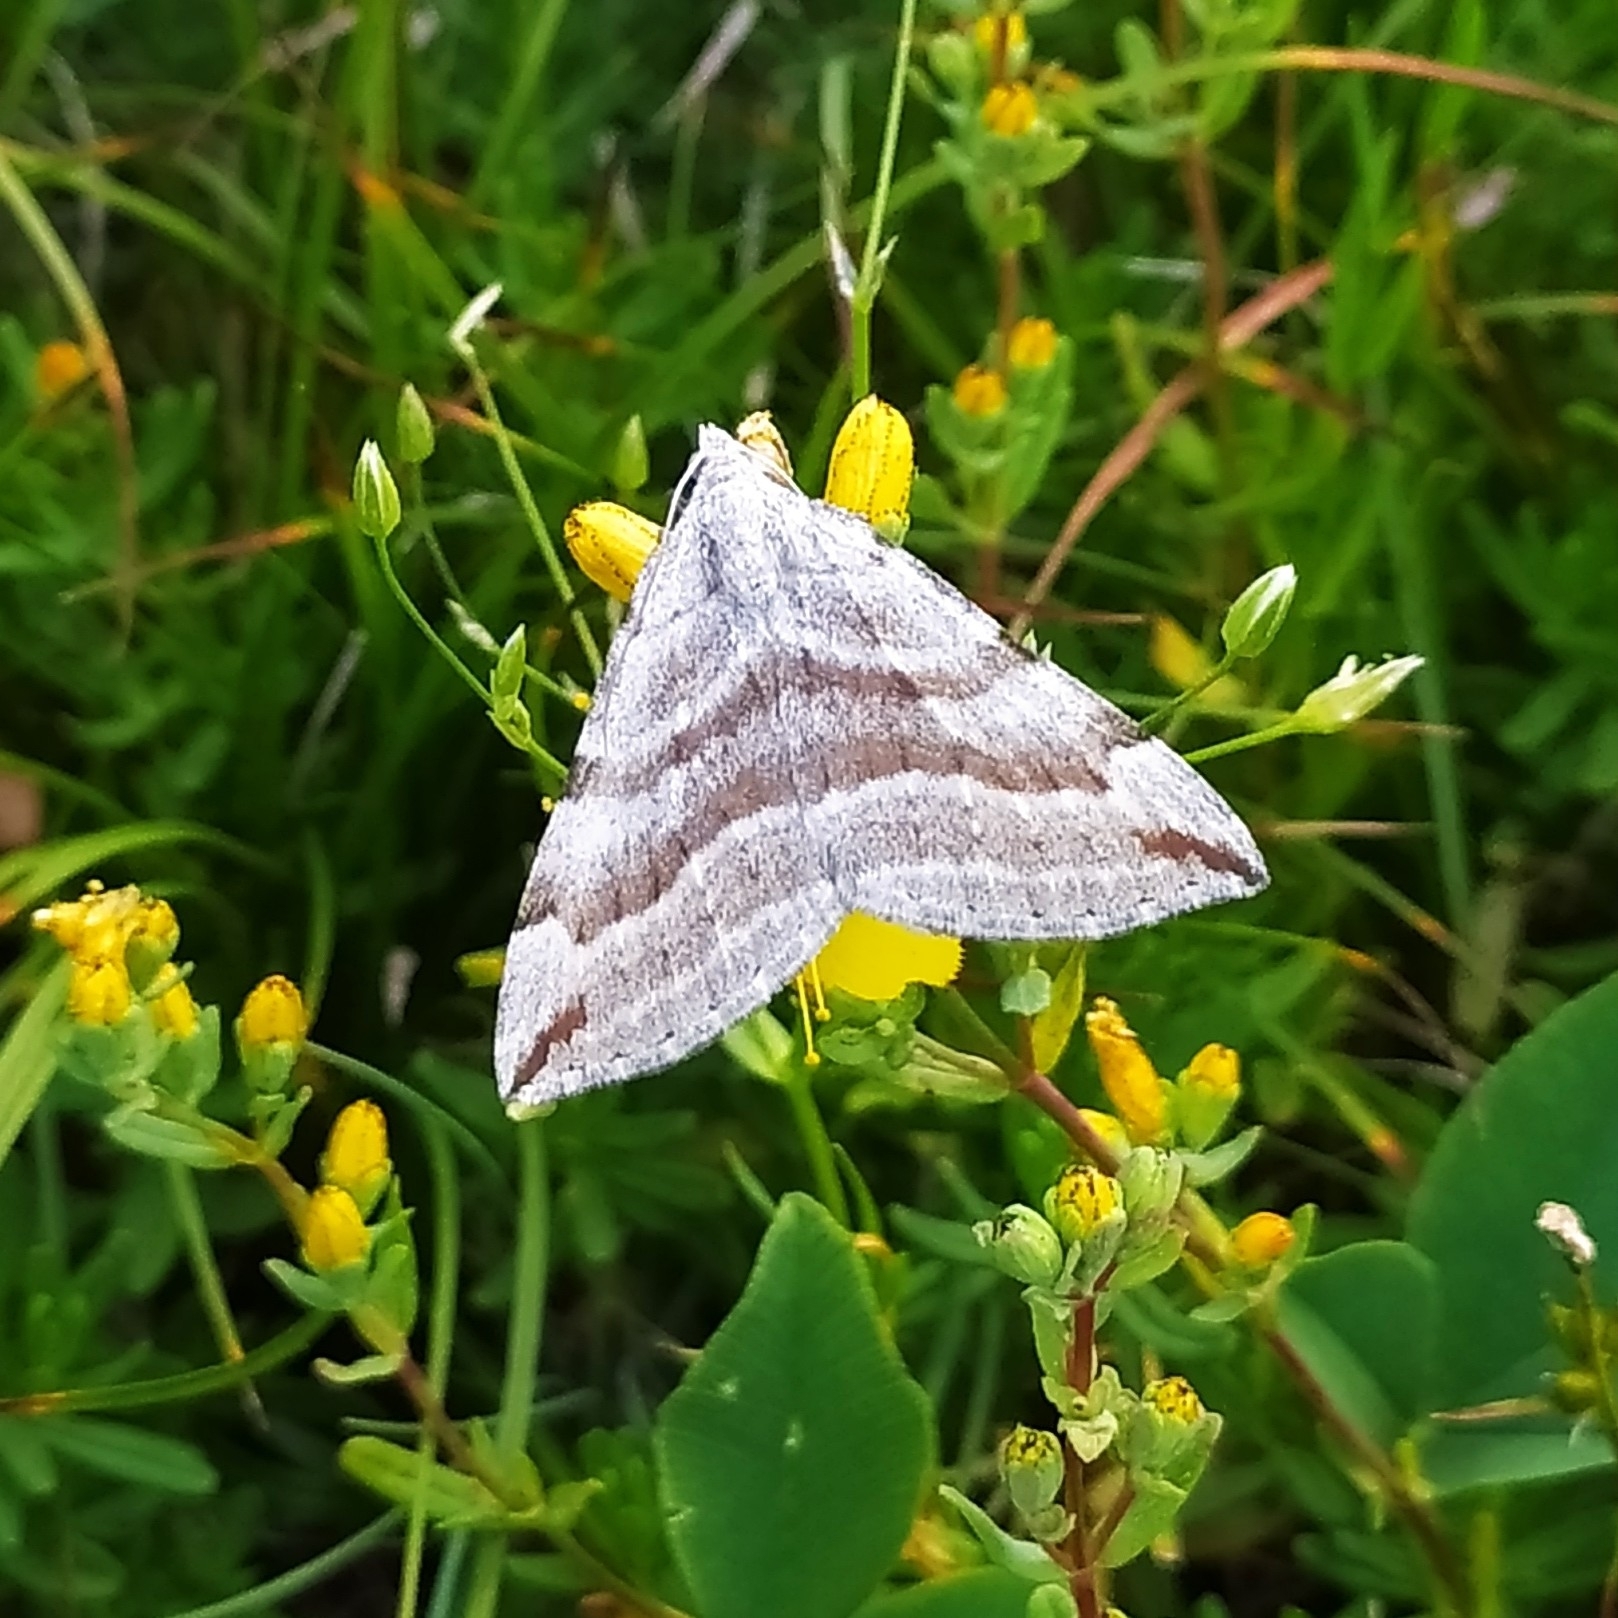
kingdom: Animalia
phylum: Arthropoda
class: Insecta
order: Lepidoptera
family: Geometridae
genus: Aplocera
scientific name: Aplocera annexata
